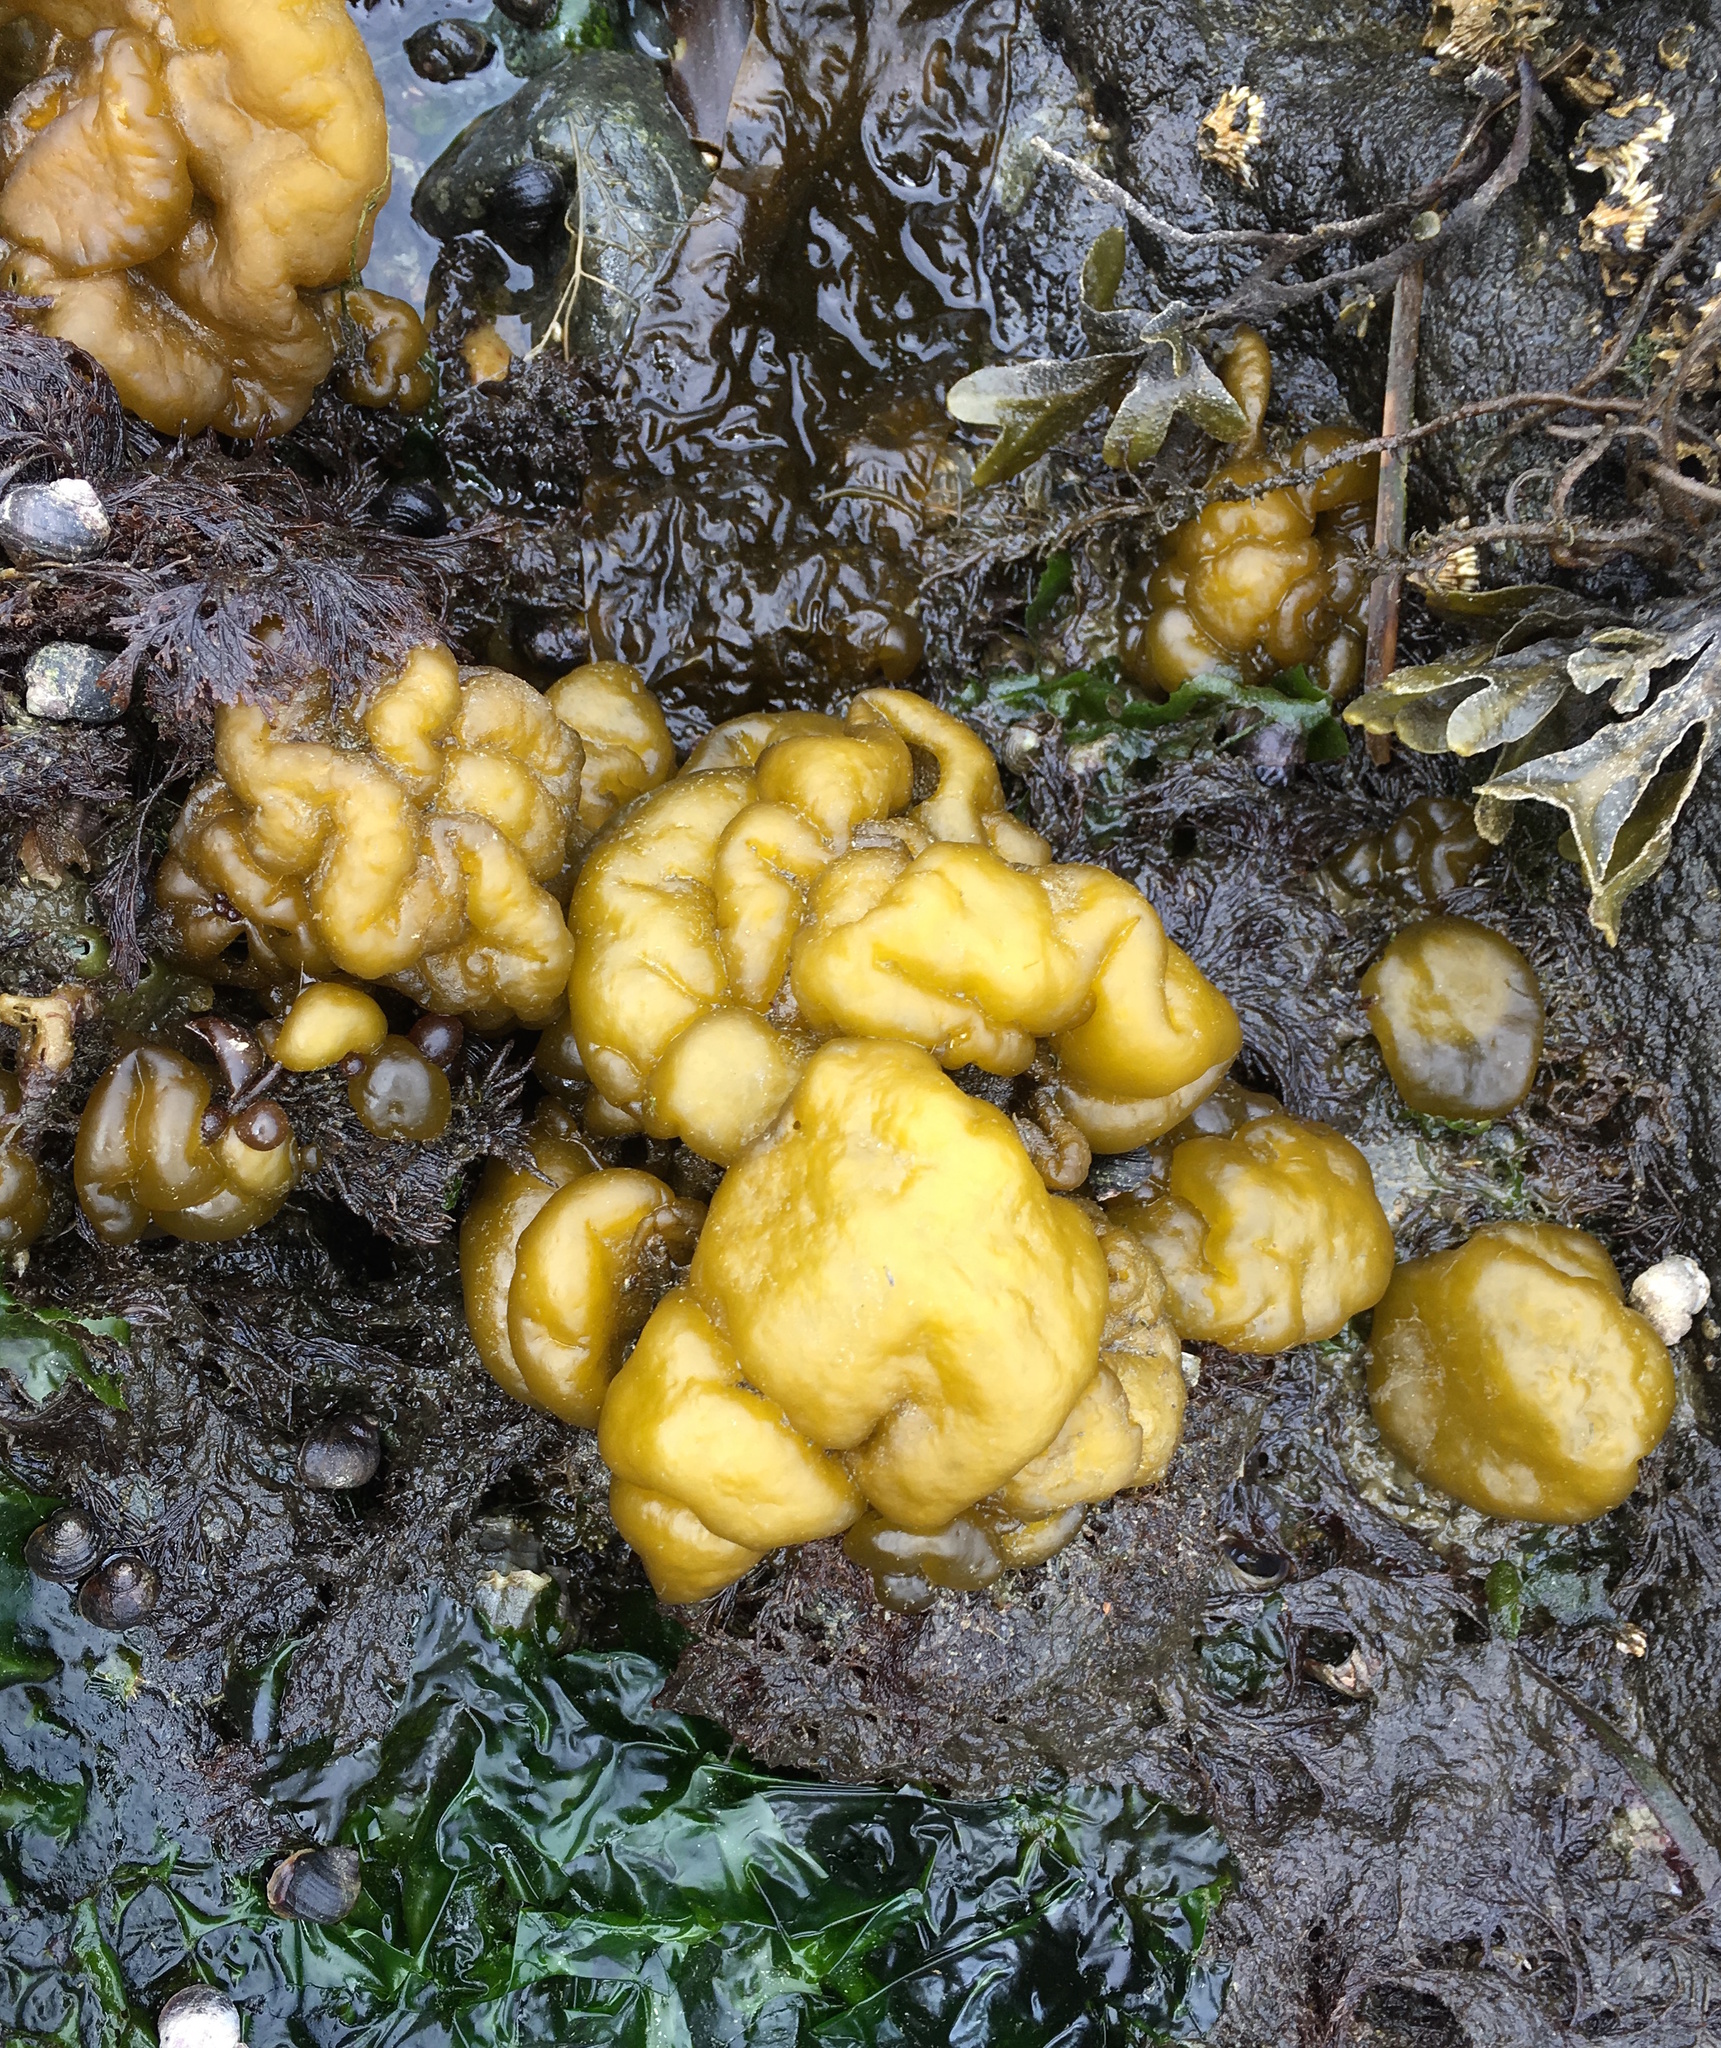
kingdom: Chromista
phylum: Ochrophyta
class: Phaeophyceae
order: Ectocarpales
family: Chordariaceae
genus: Leathesia
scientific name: Leathesia marina
